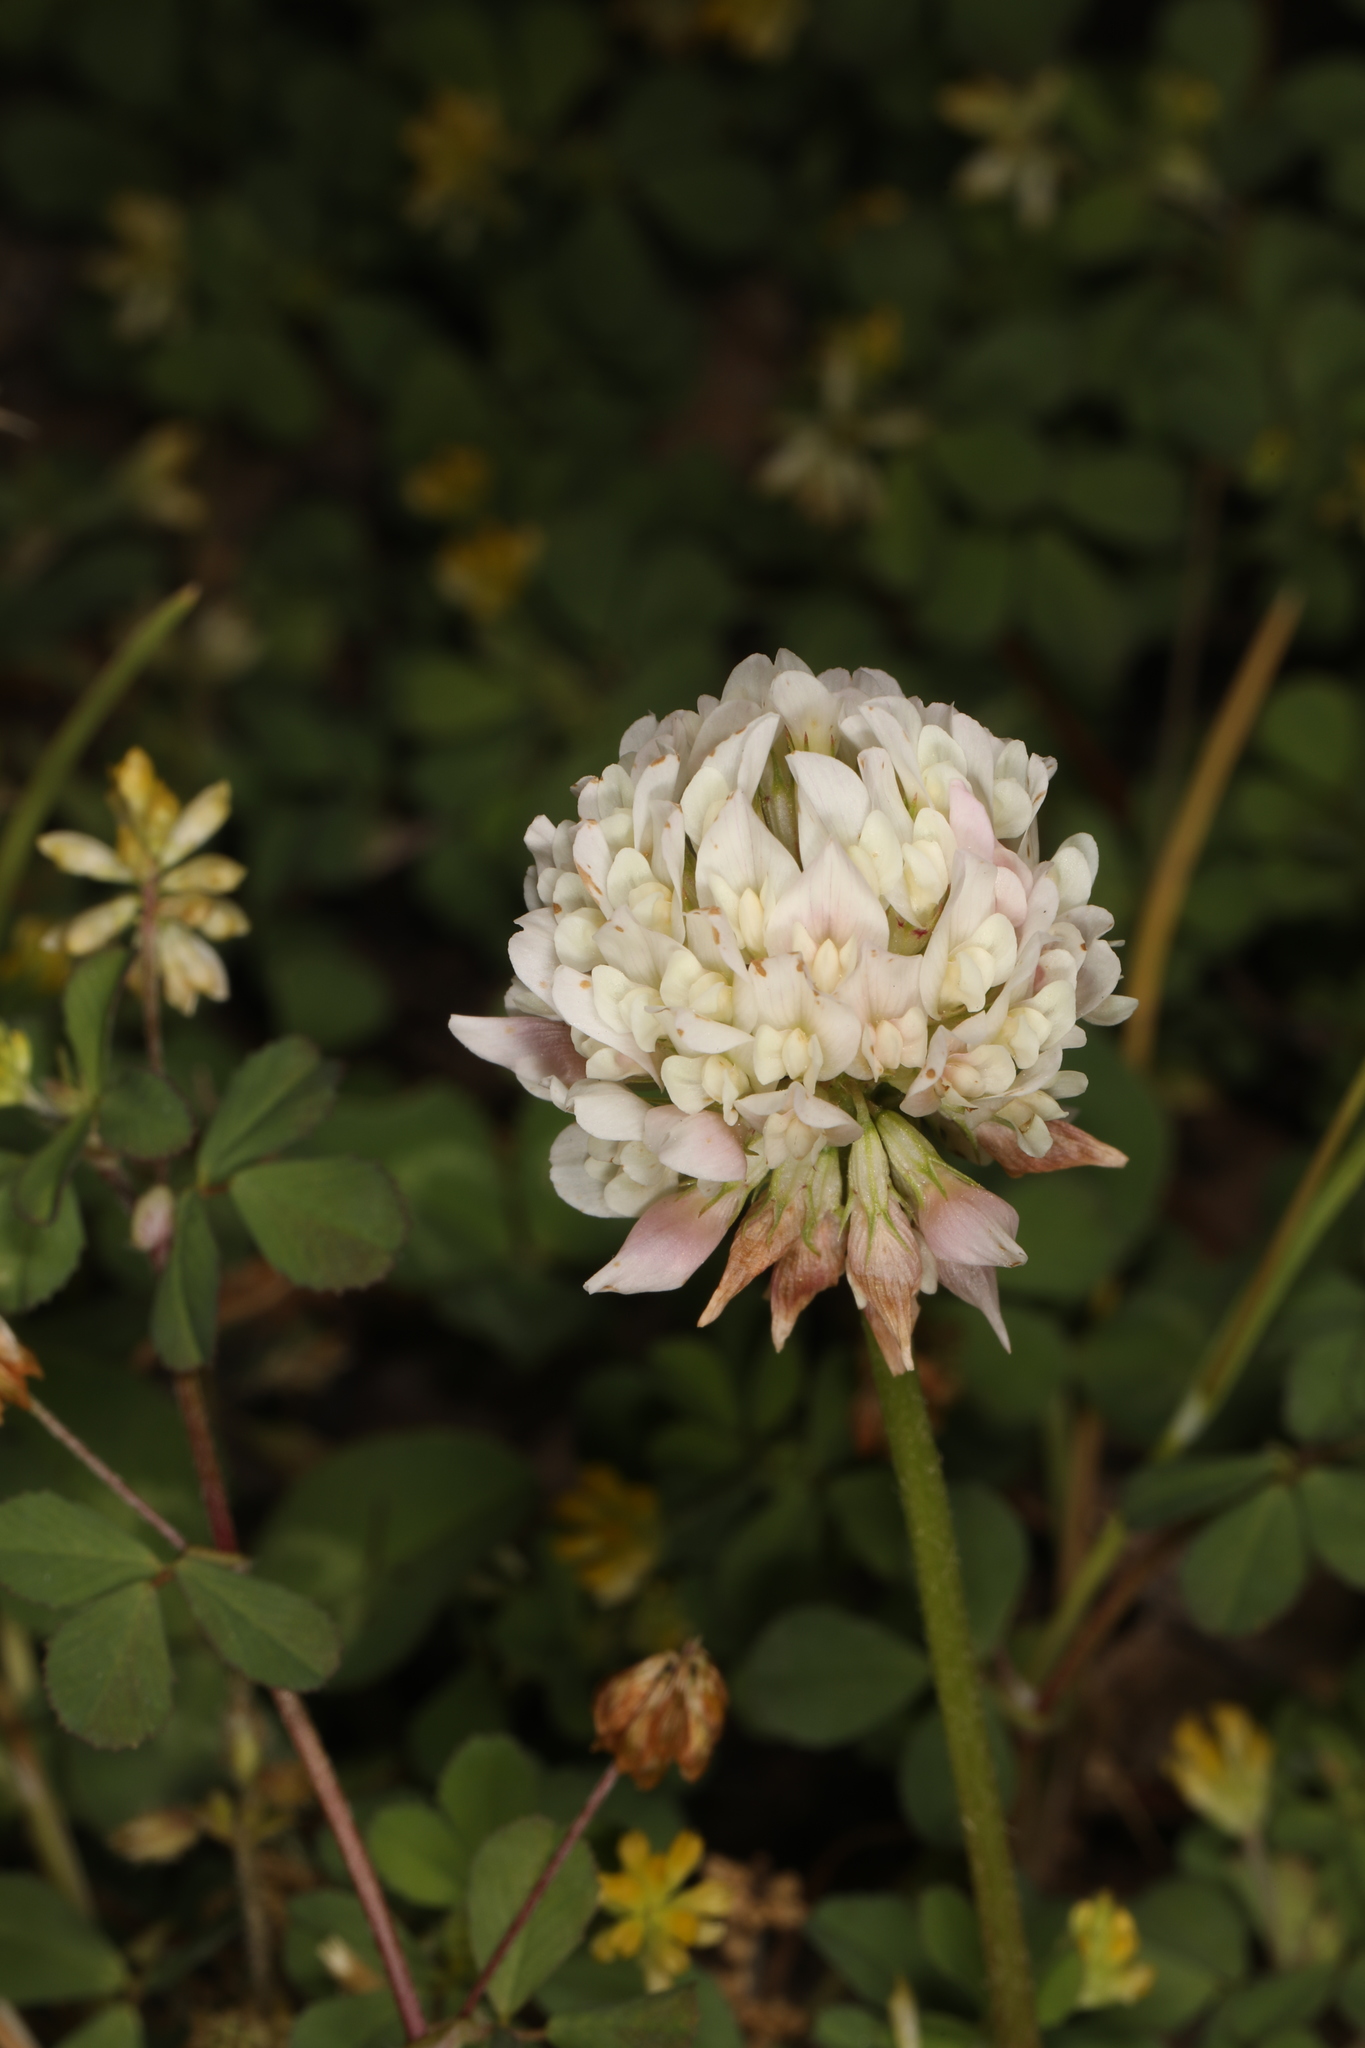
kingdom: Plantae
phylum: Tracheophyta
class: Magnoliopsida
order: Fabales
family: Fabaceae
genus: Trifolium
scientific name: Trifolium repens
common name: White clover
